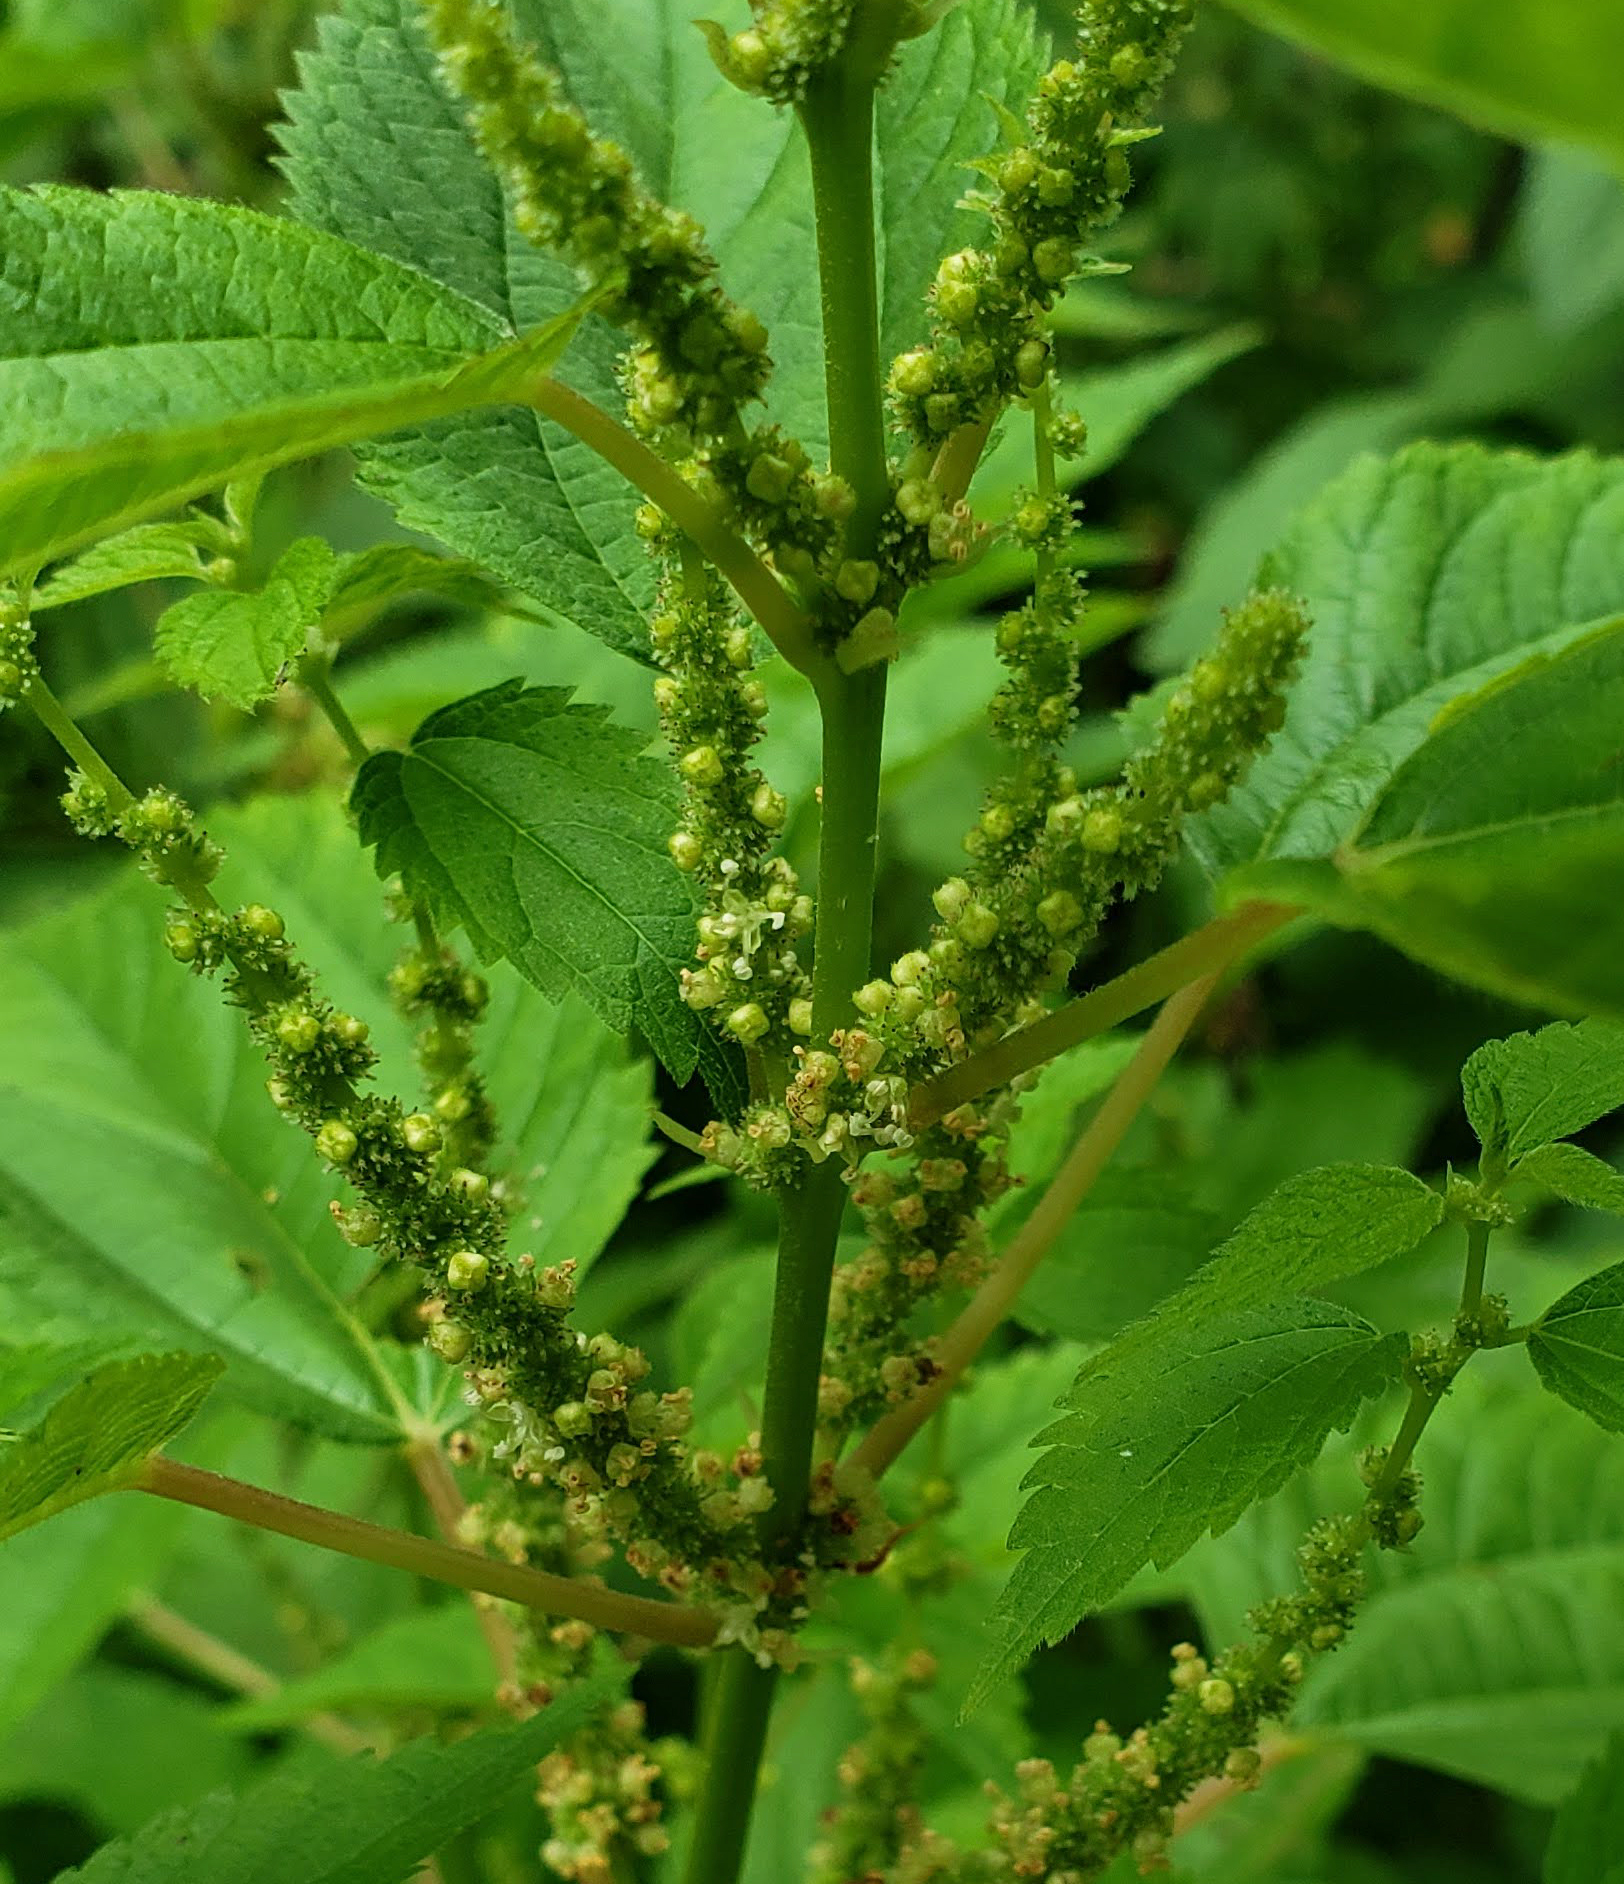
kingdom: Plantae
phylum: Tracheophyta
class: Magnoliopsida
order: Rosales
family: Urticaceae
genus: Boehmeria
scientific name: Boehmeria cylindrica
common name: Bog-hemp
